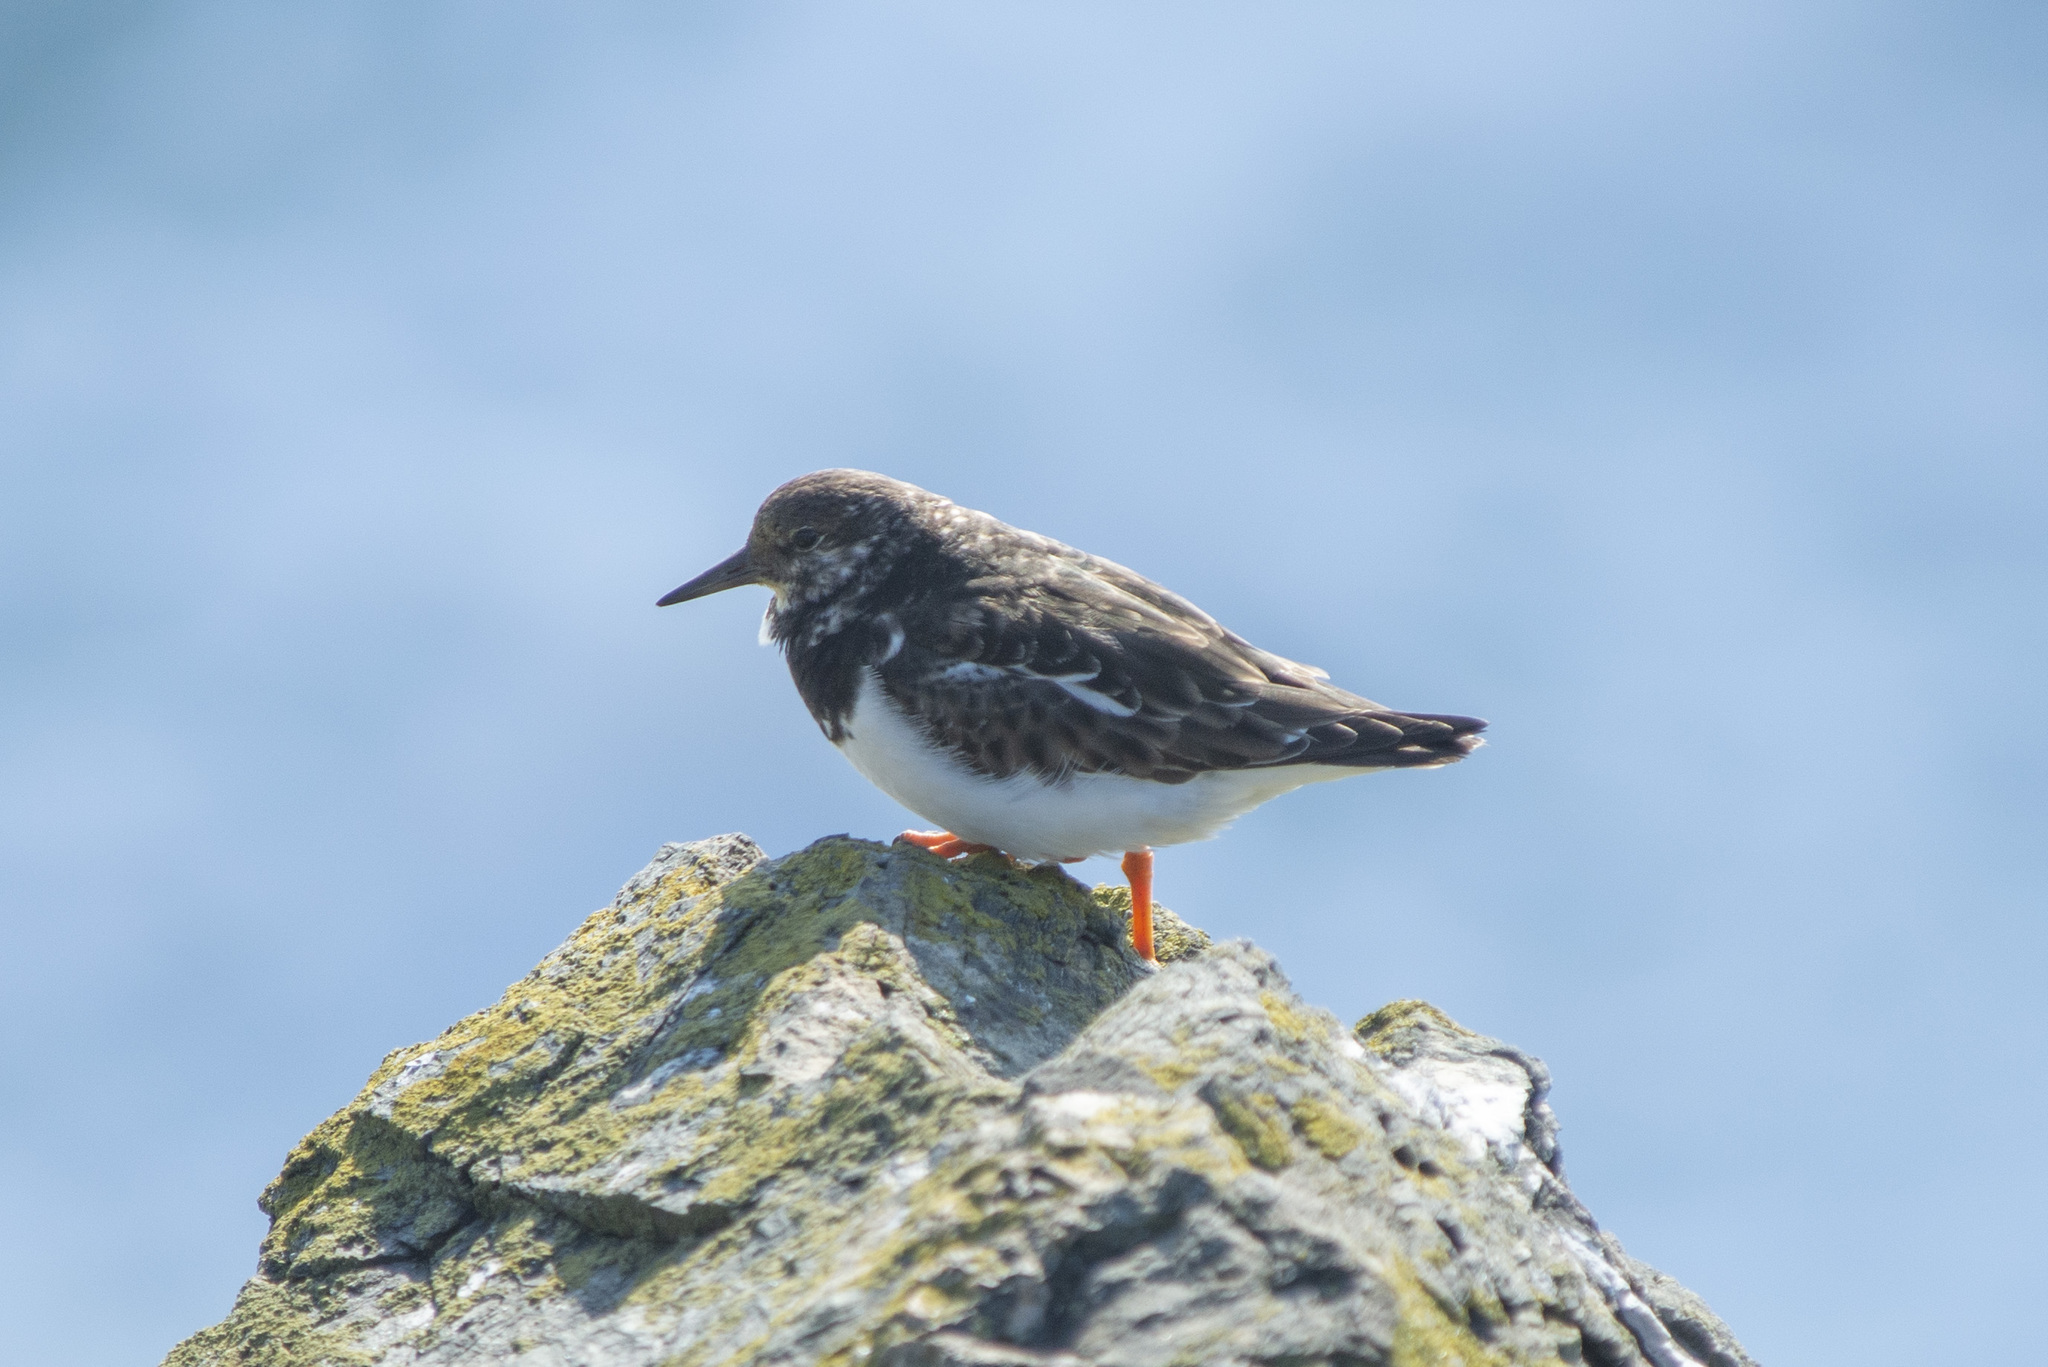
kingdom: Animalia
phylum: Chordata
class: Aves
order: Charadriiformes
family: Scolopacidae
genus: Arenaria
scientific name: Arenaria interpres
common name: Ruddy turnstone
